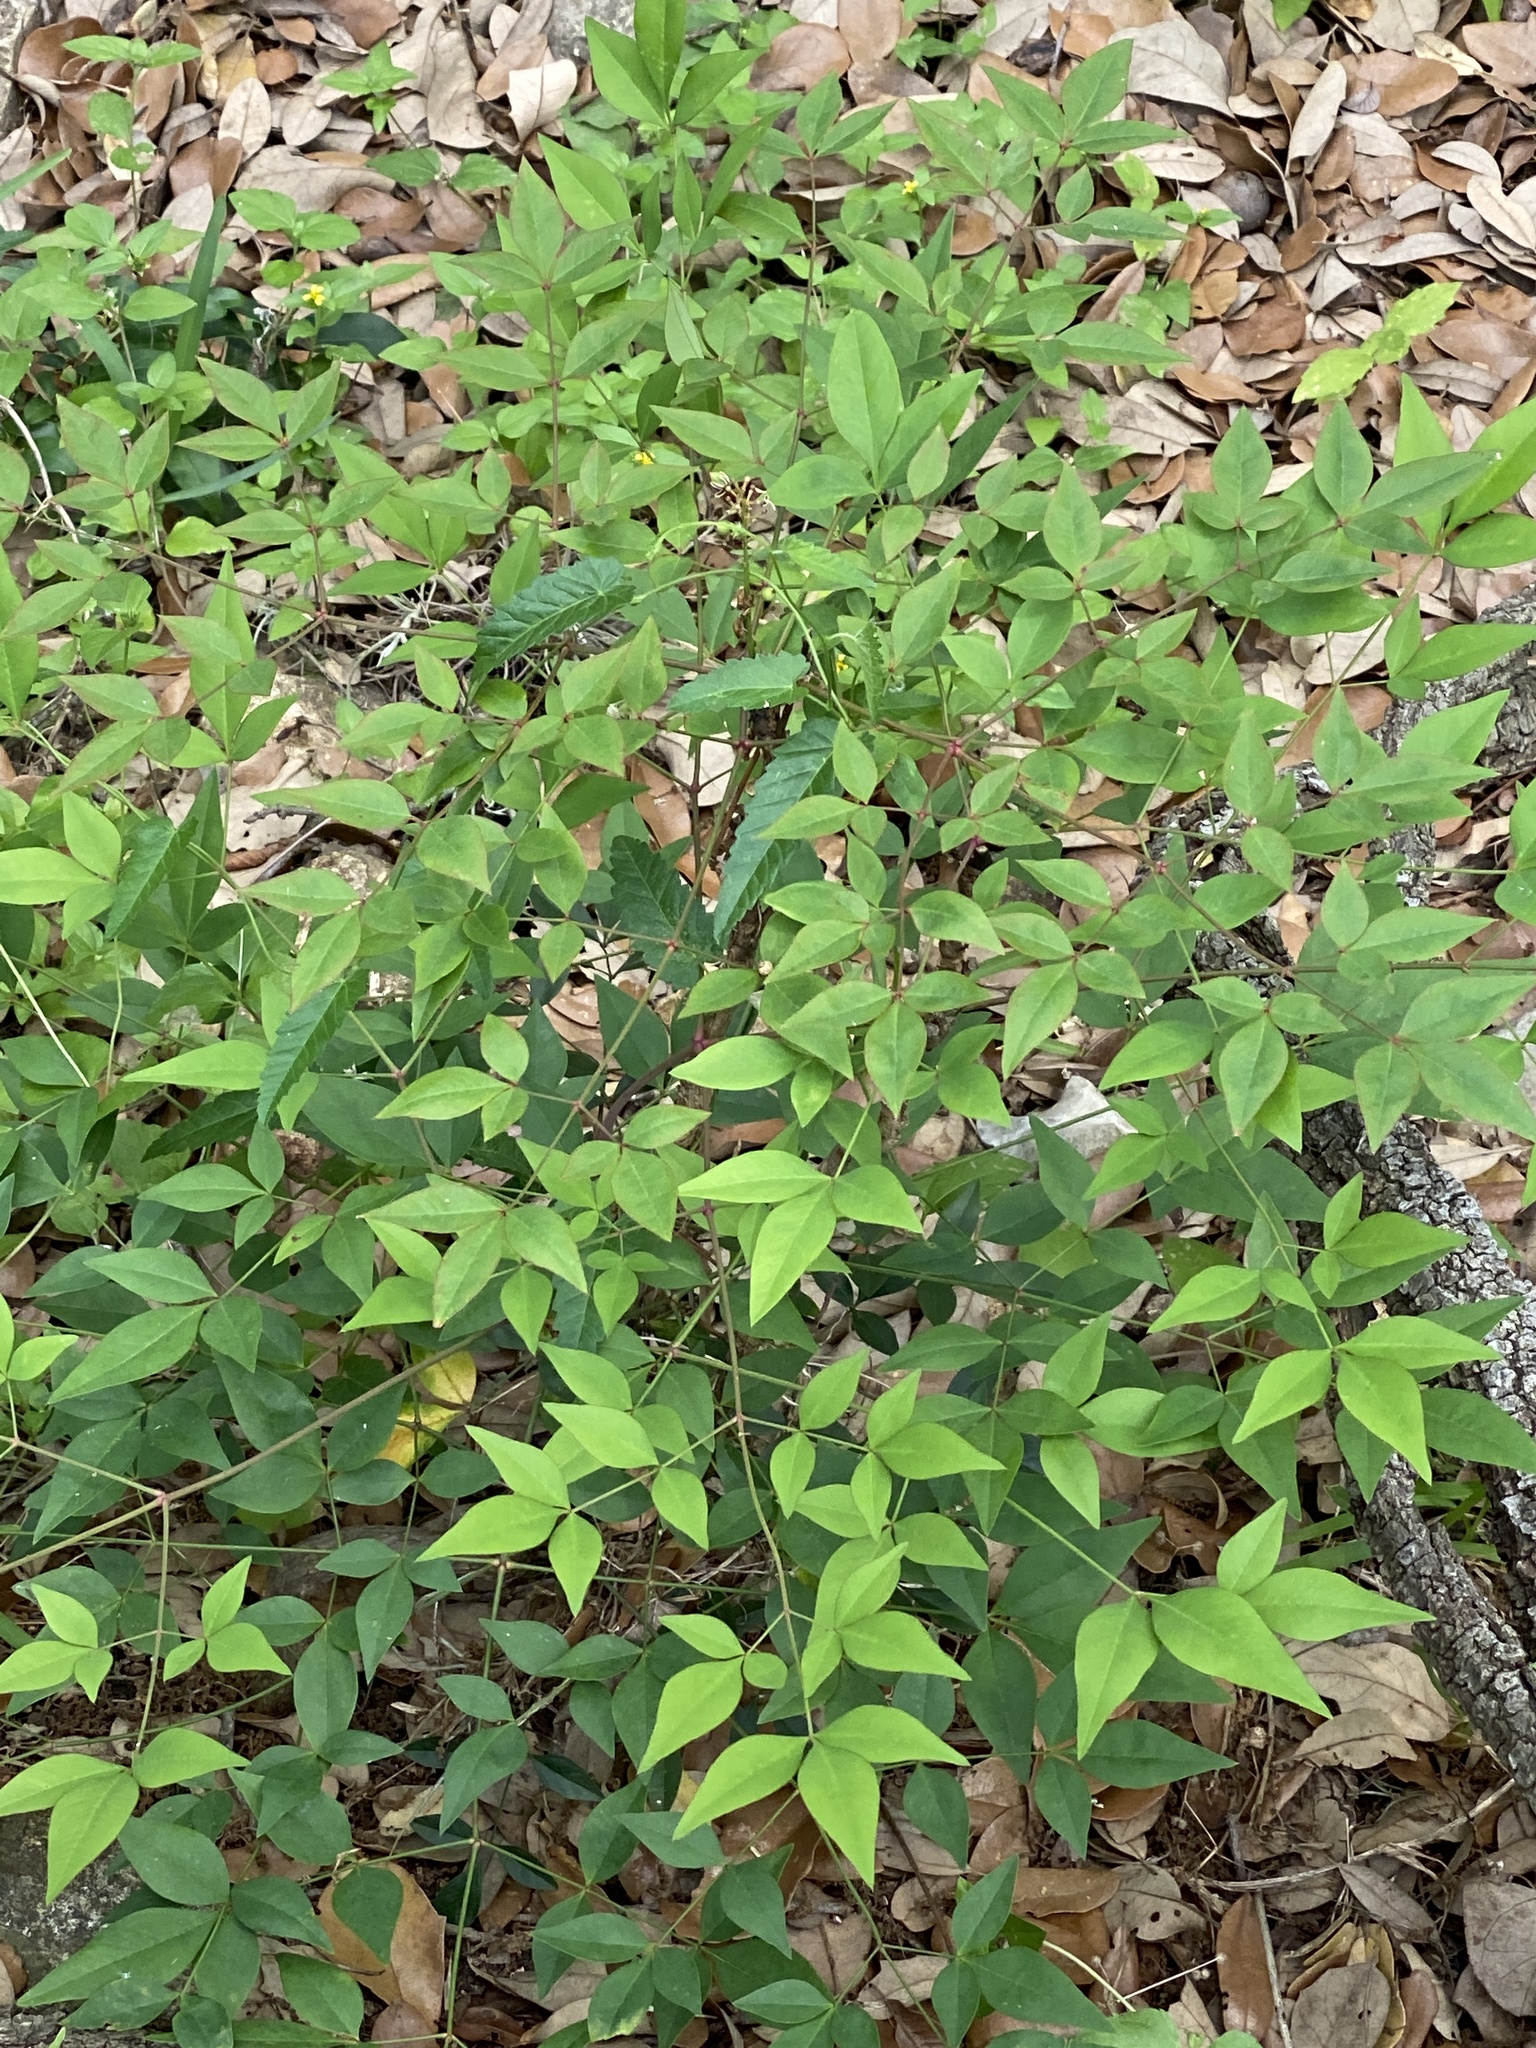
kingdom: Plantae
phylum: Tracheophyta
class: Magnoliopsida
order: Ranunculales
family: Berberidaceae
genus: Nandina
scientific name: Nandina domestica
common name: Sacred bamboo
